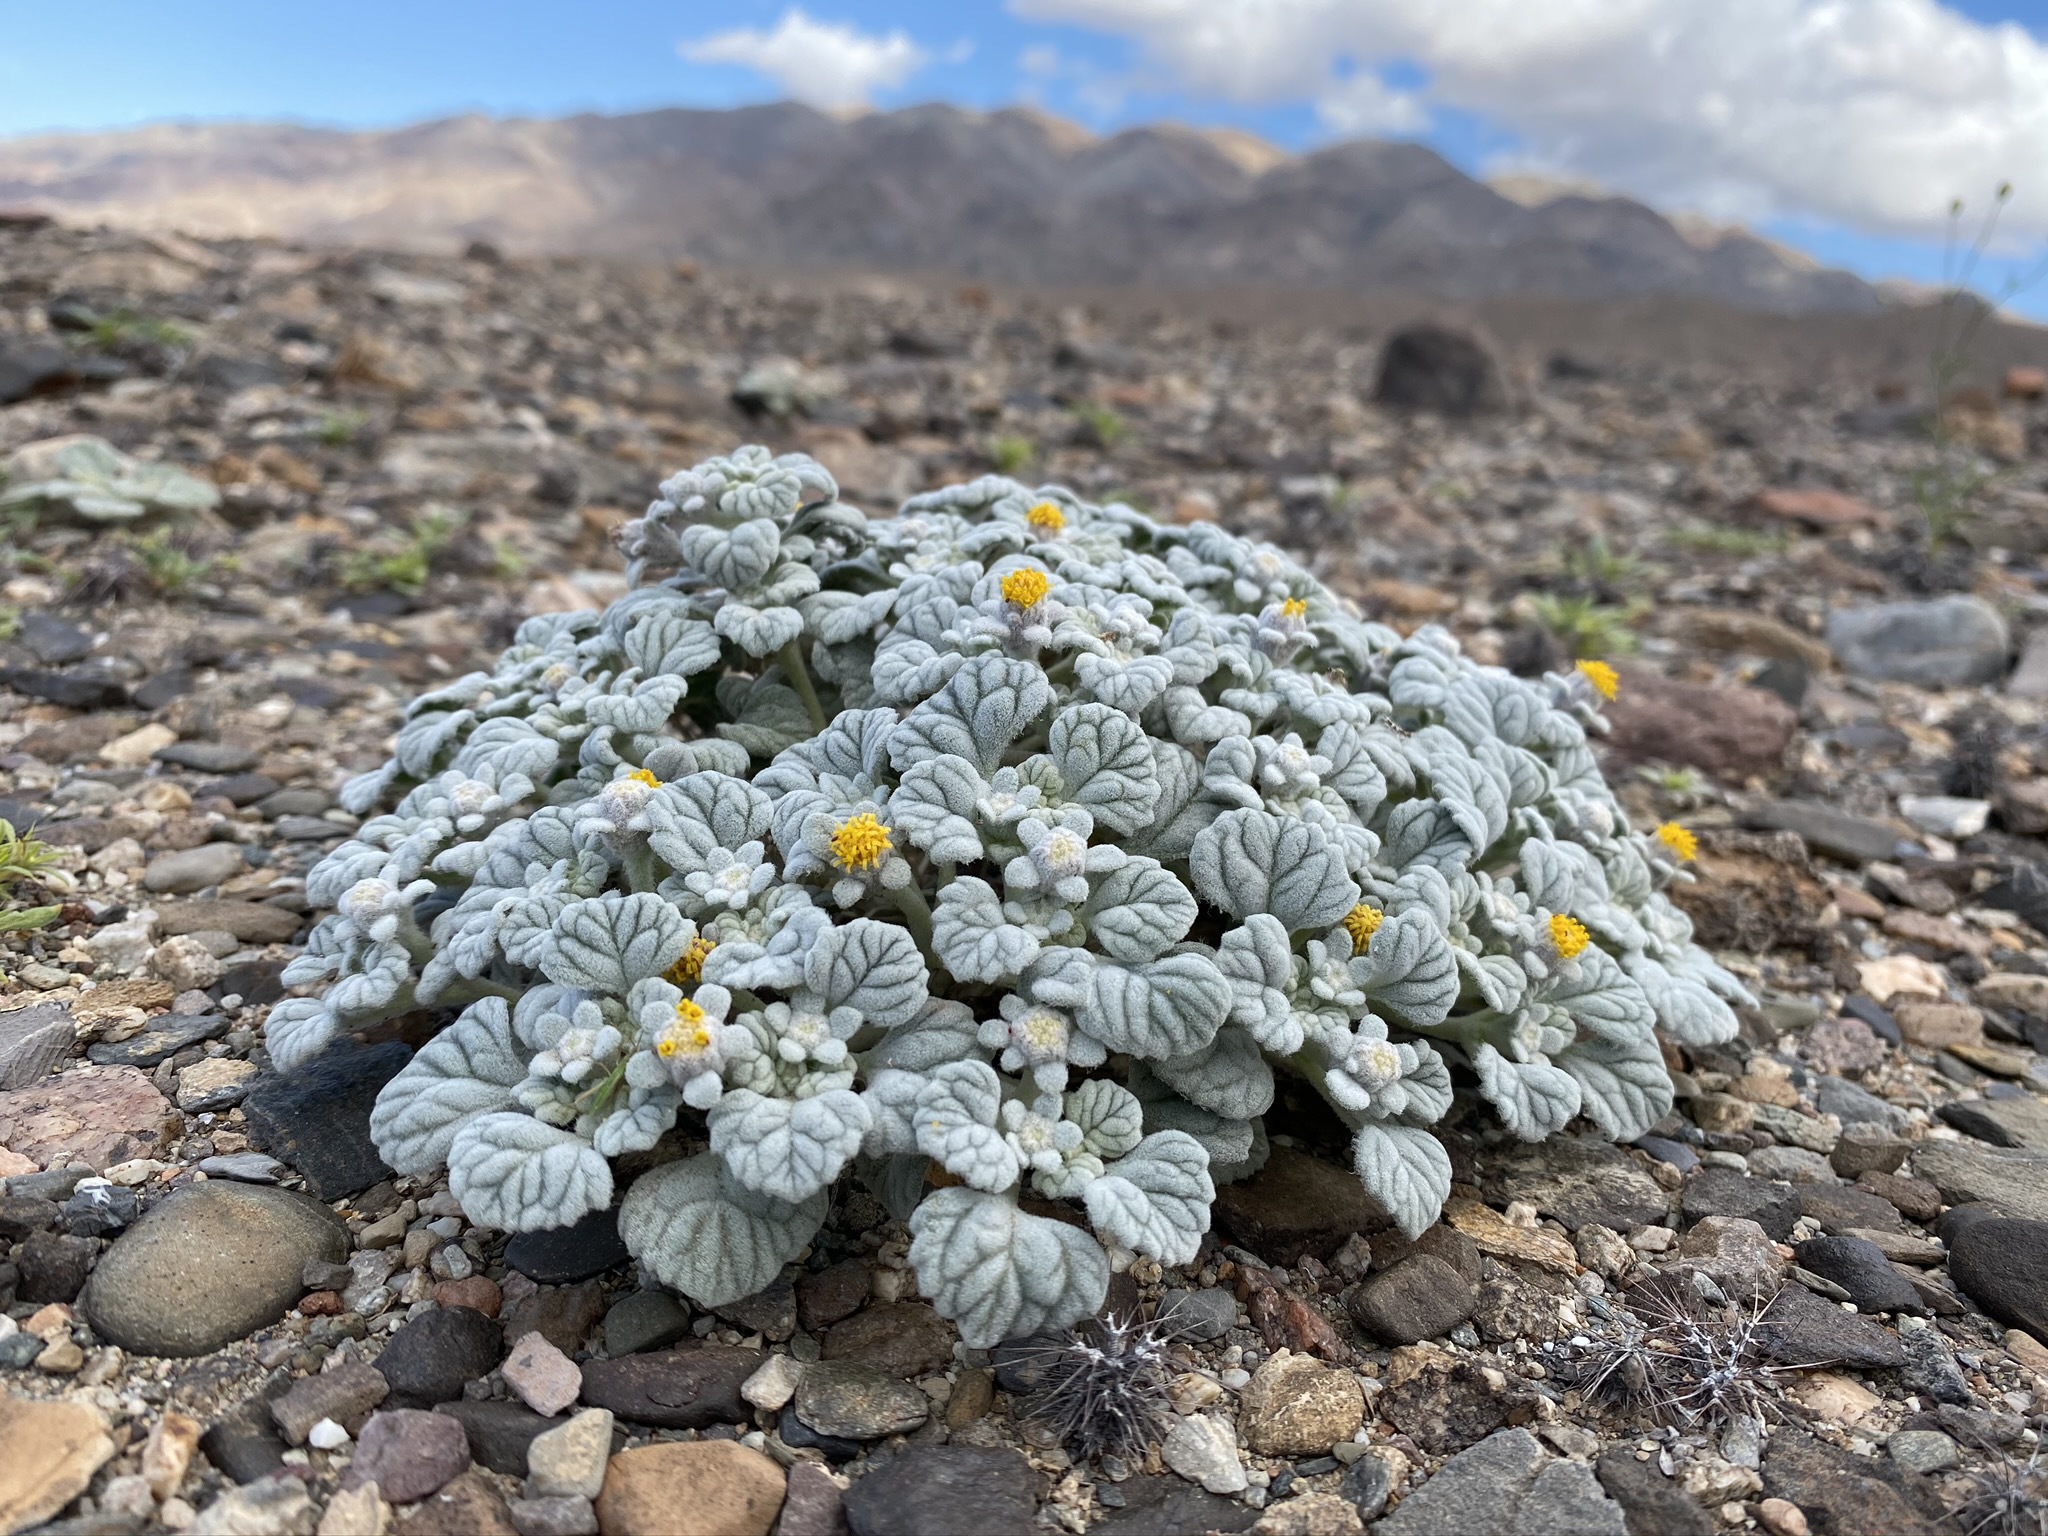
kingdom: Plantae
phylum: Tracheophyta
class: Magnoliopsida
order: Asterales
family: Asteraceae
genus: Psathyrotes
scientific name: Psathyrotes ramosissima
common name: Turtleback
